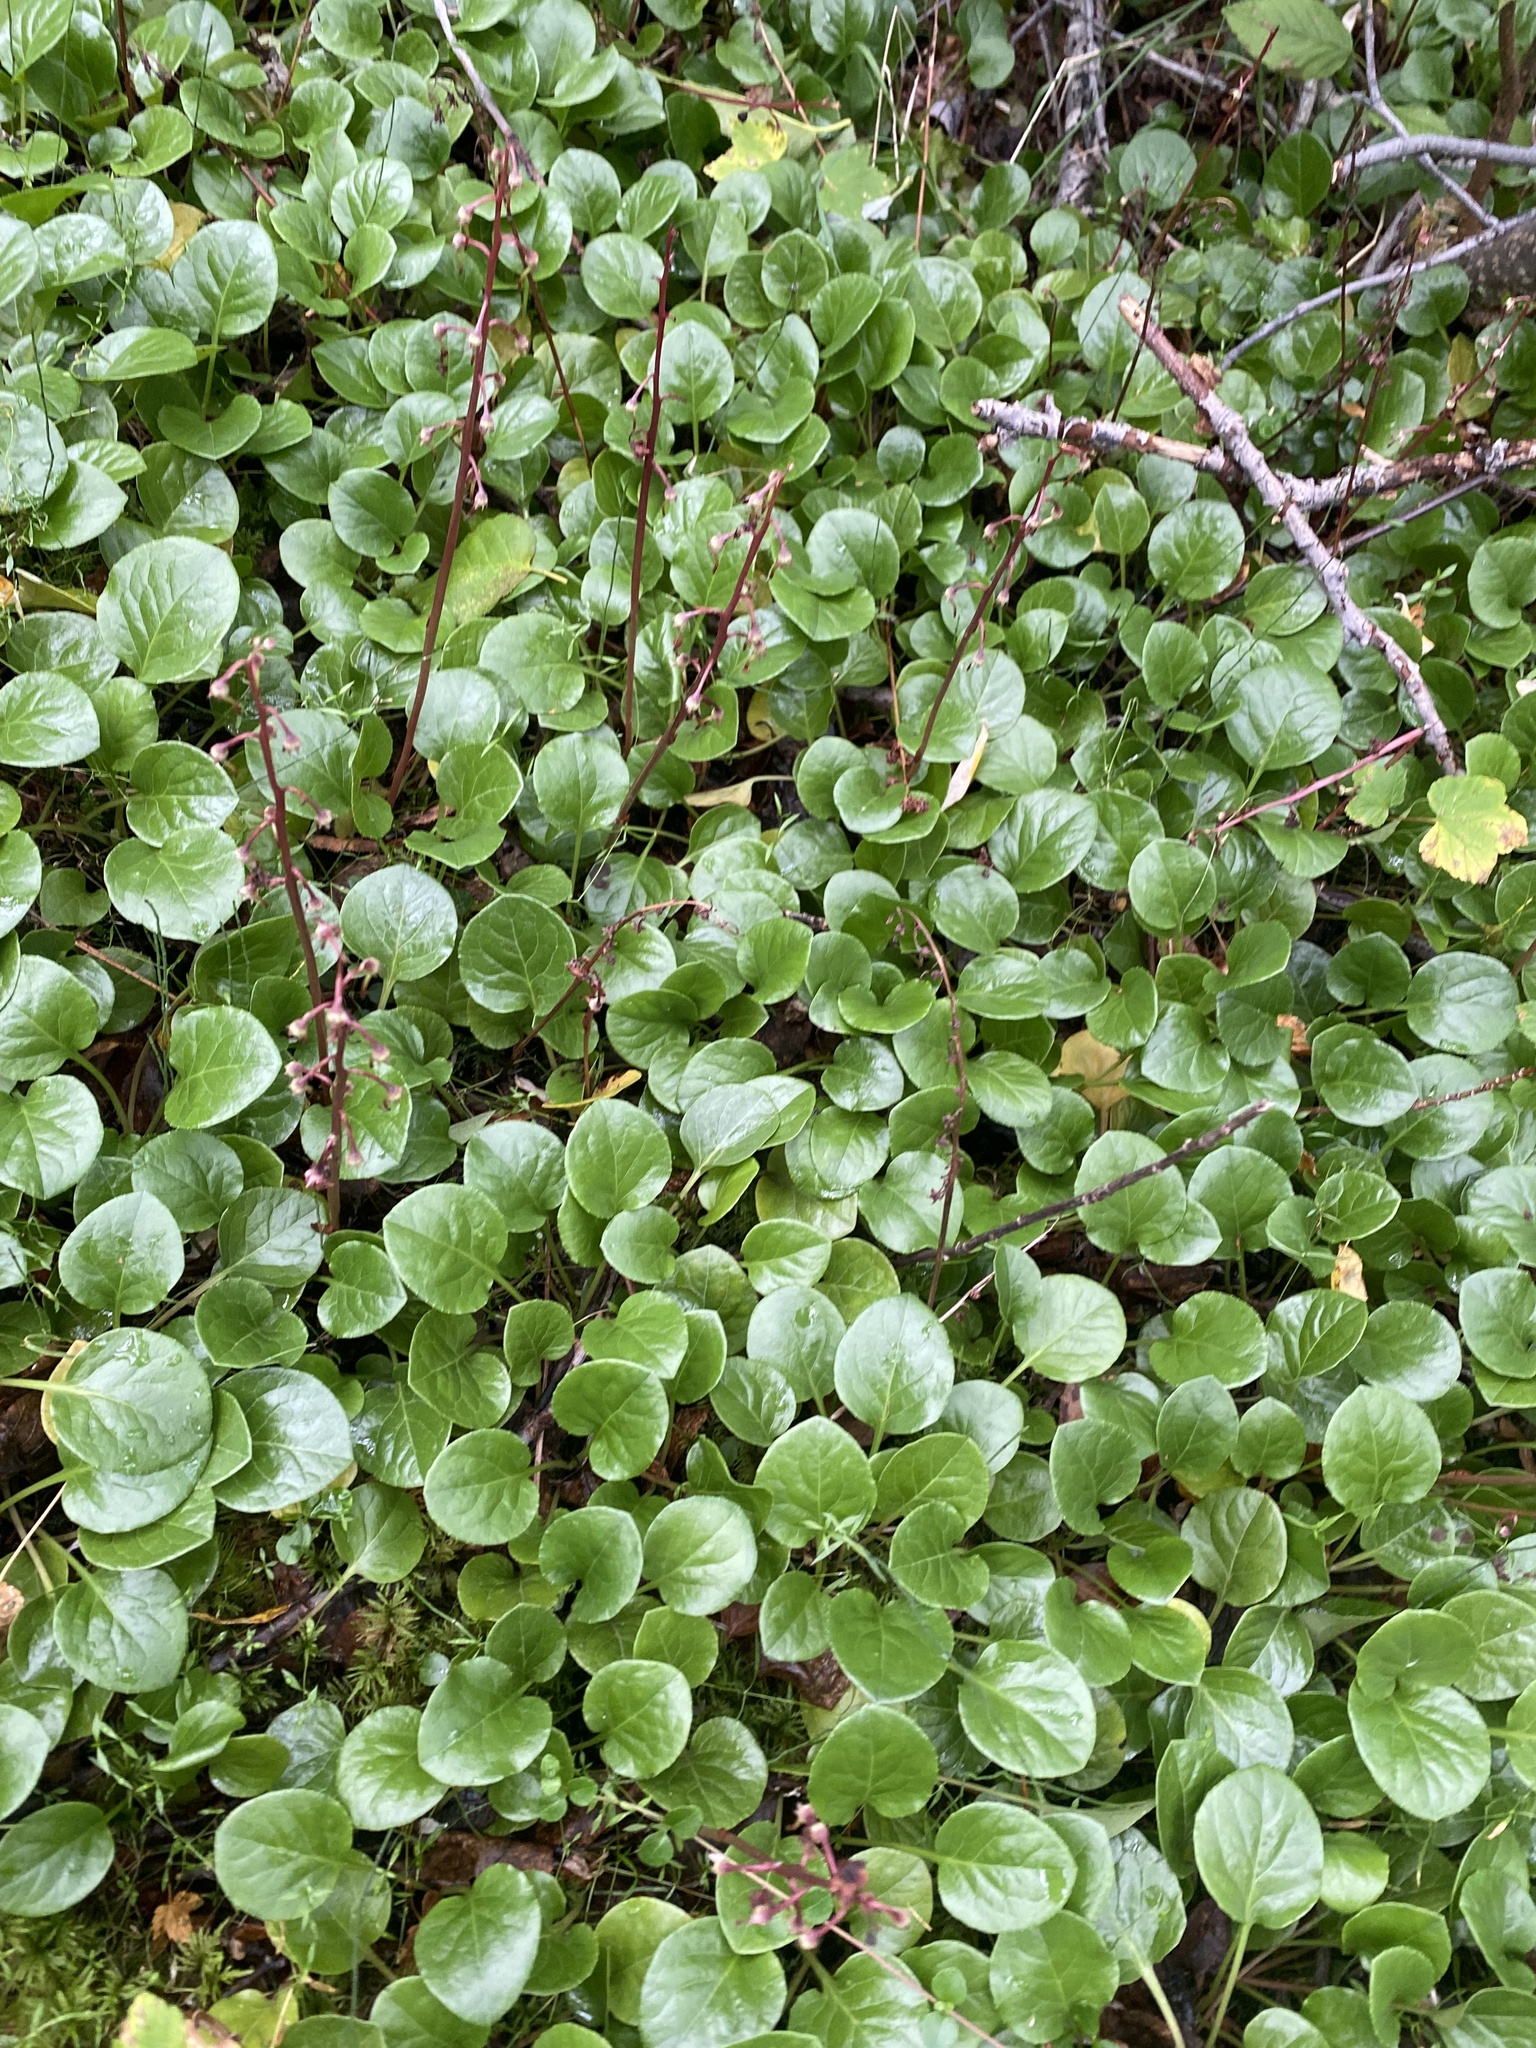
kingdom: Plantae
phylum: Tracheophyta
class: Magnoliopsida
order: Ericales
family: Ericaceae
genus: Pyrola
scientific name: Pyrola asarifolia
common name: Bog wintergreen
